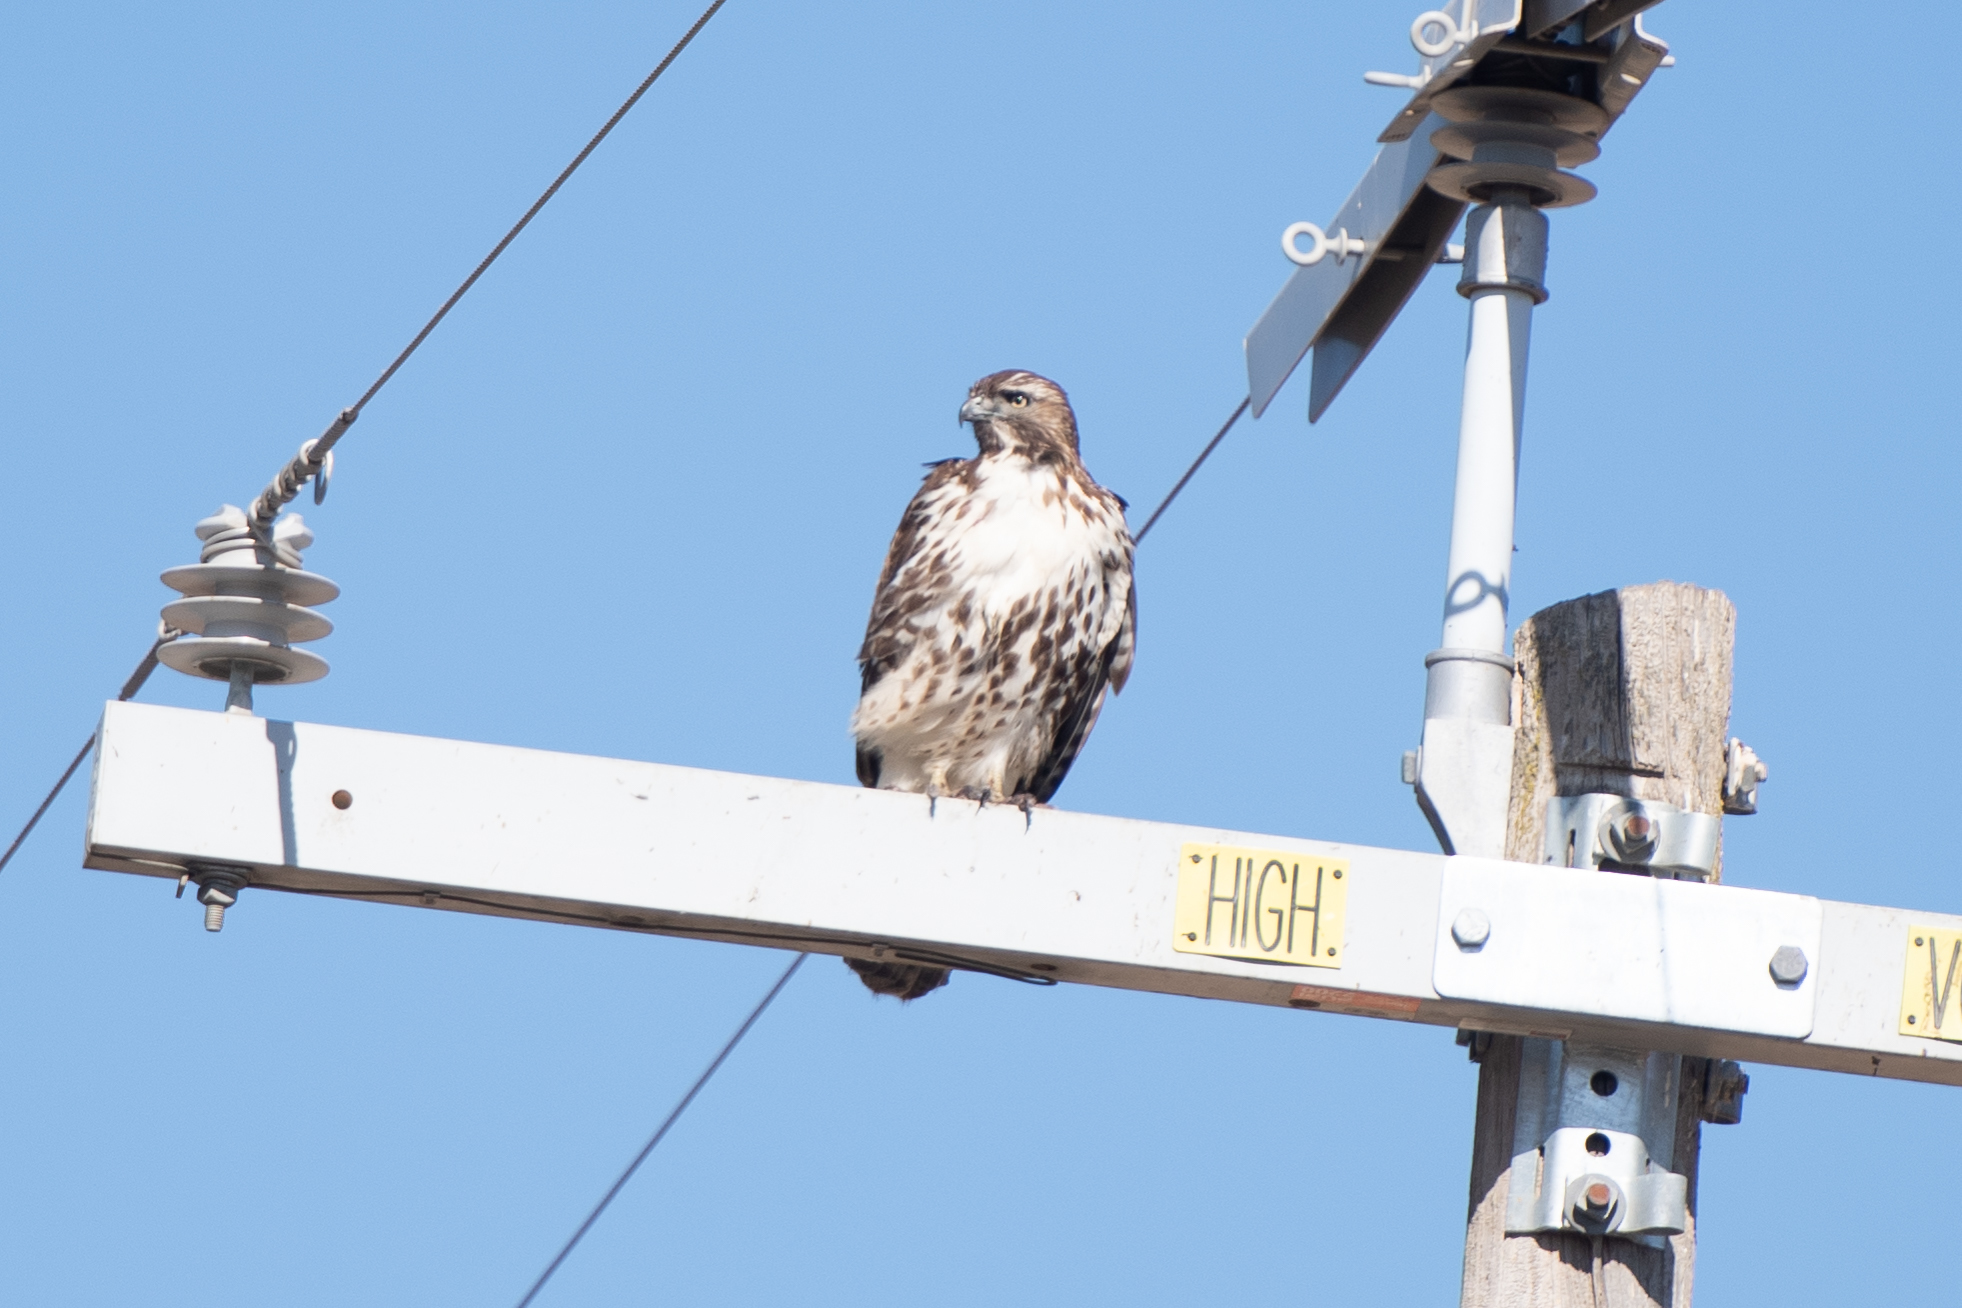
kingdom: Animalia
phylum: Chordata
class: Aves
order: Accipitriformes
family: Accipitridae
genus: Buteo
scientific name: Buteo jamaicensis
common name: Red-tailed hawk
